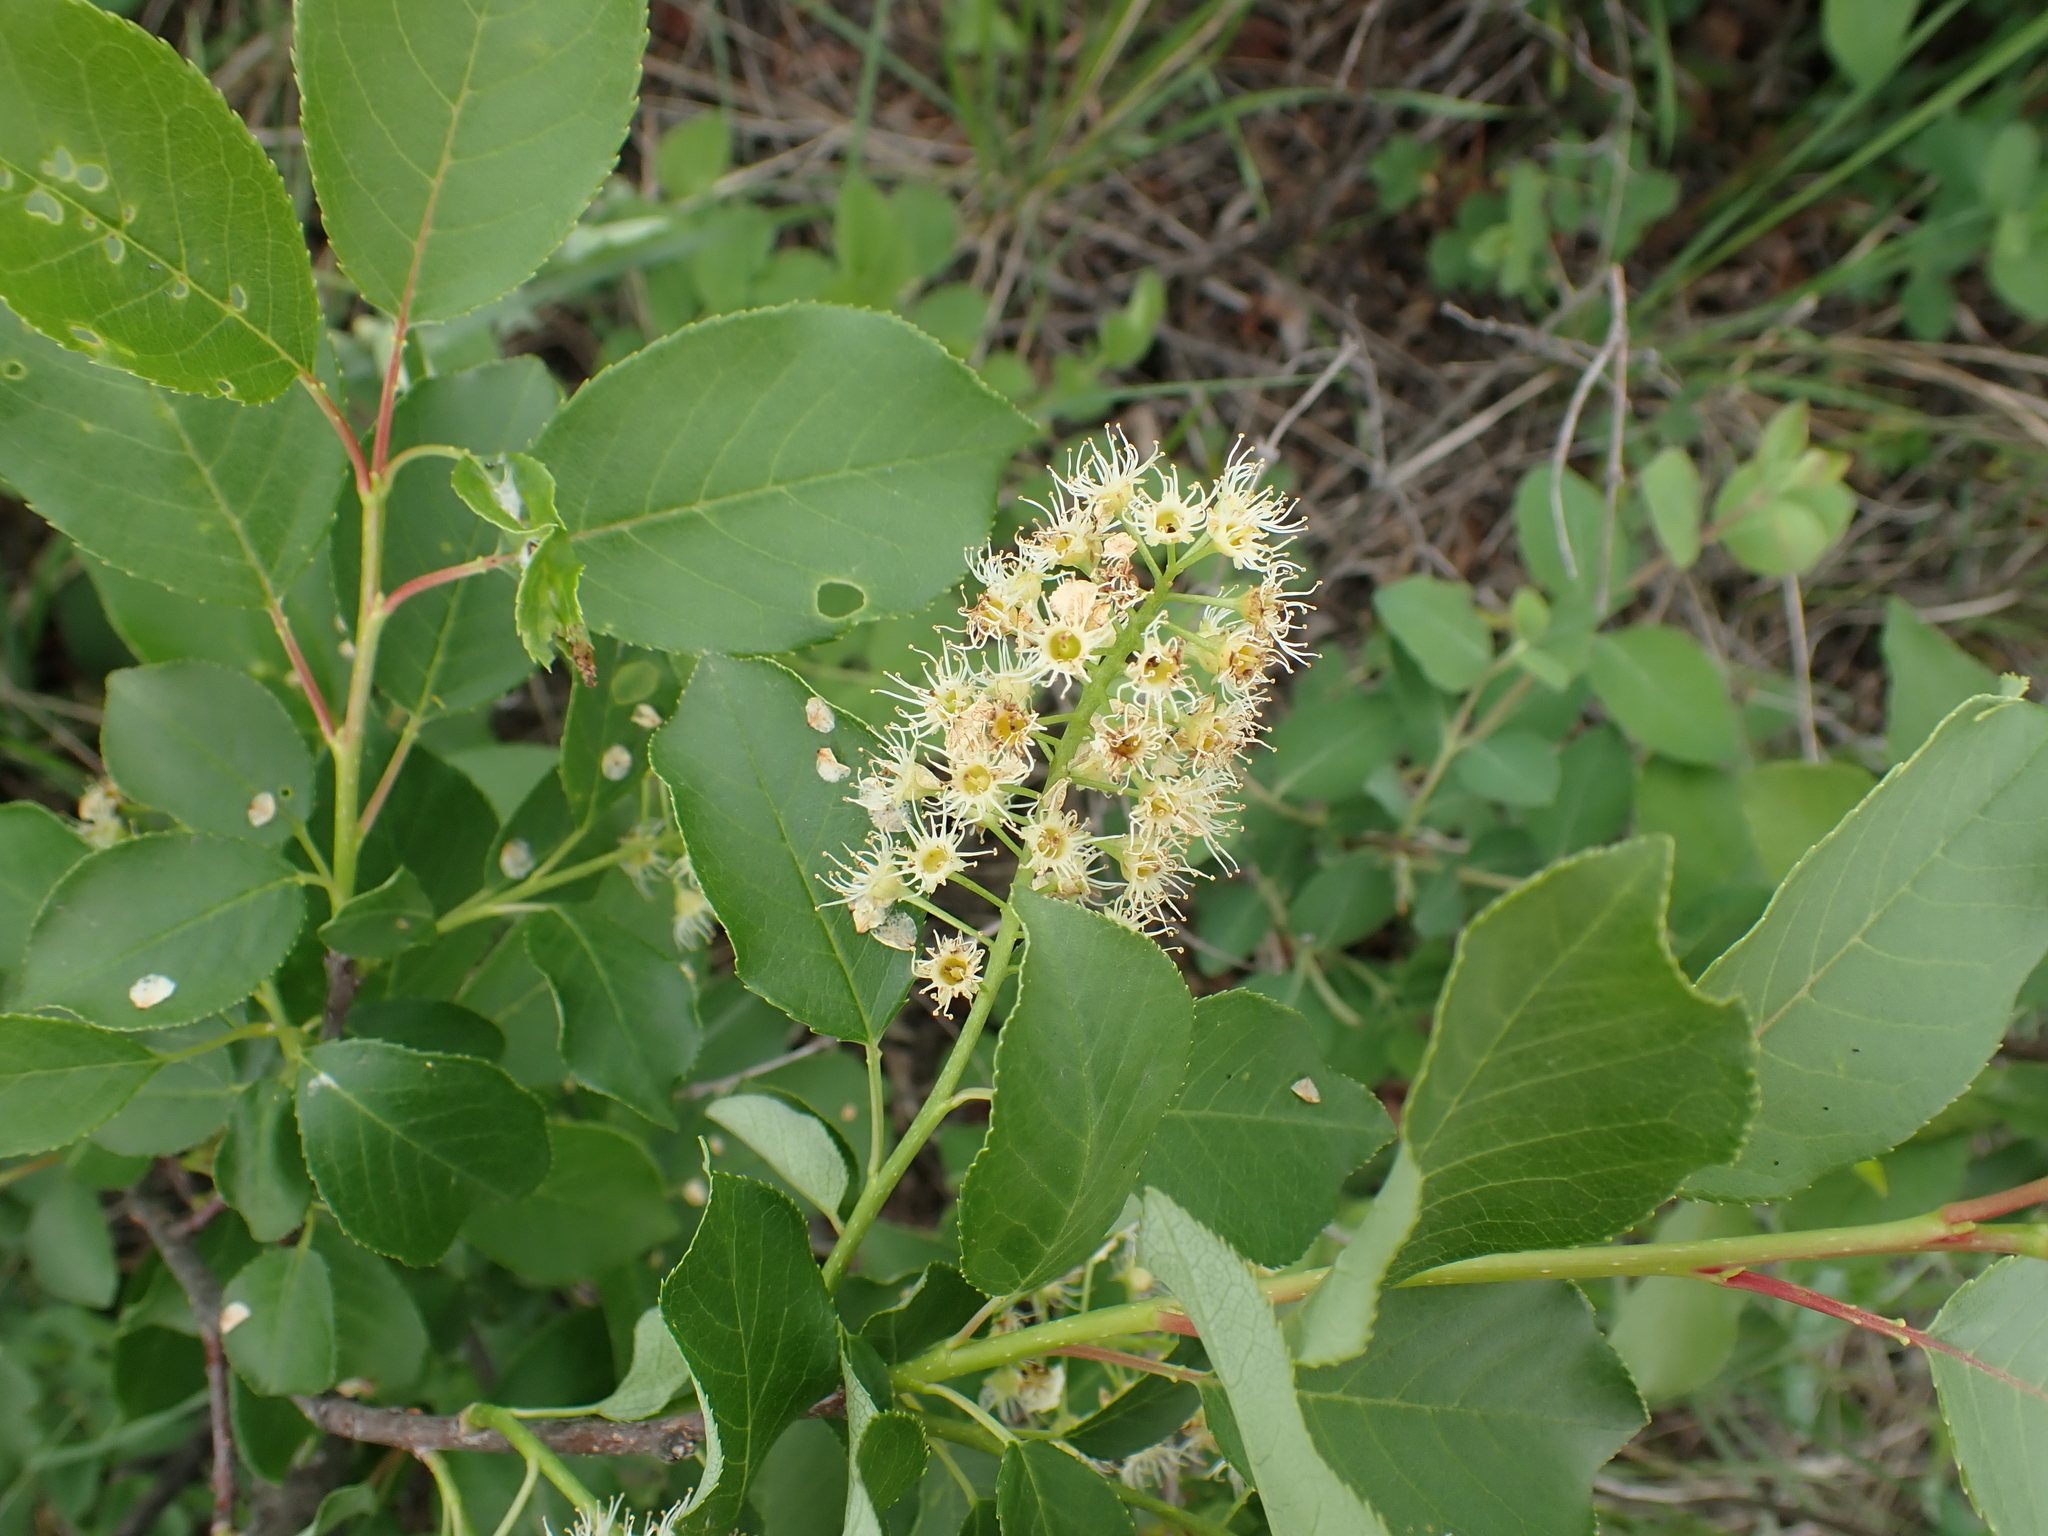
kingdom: Plantae
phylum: Tracheophyta
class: Magnoliopsida
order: Rosales
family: Rosaceae
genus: Prunus
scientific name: Prunus virginiana
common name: Chokecherry
